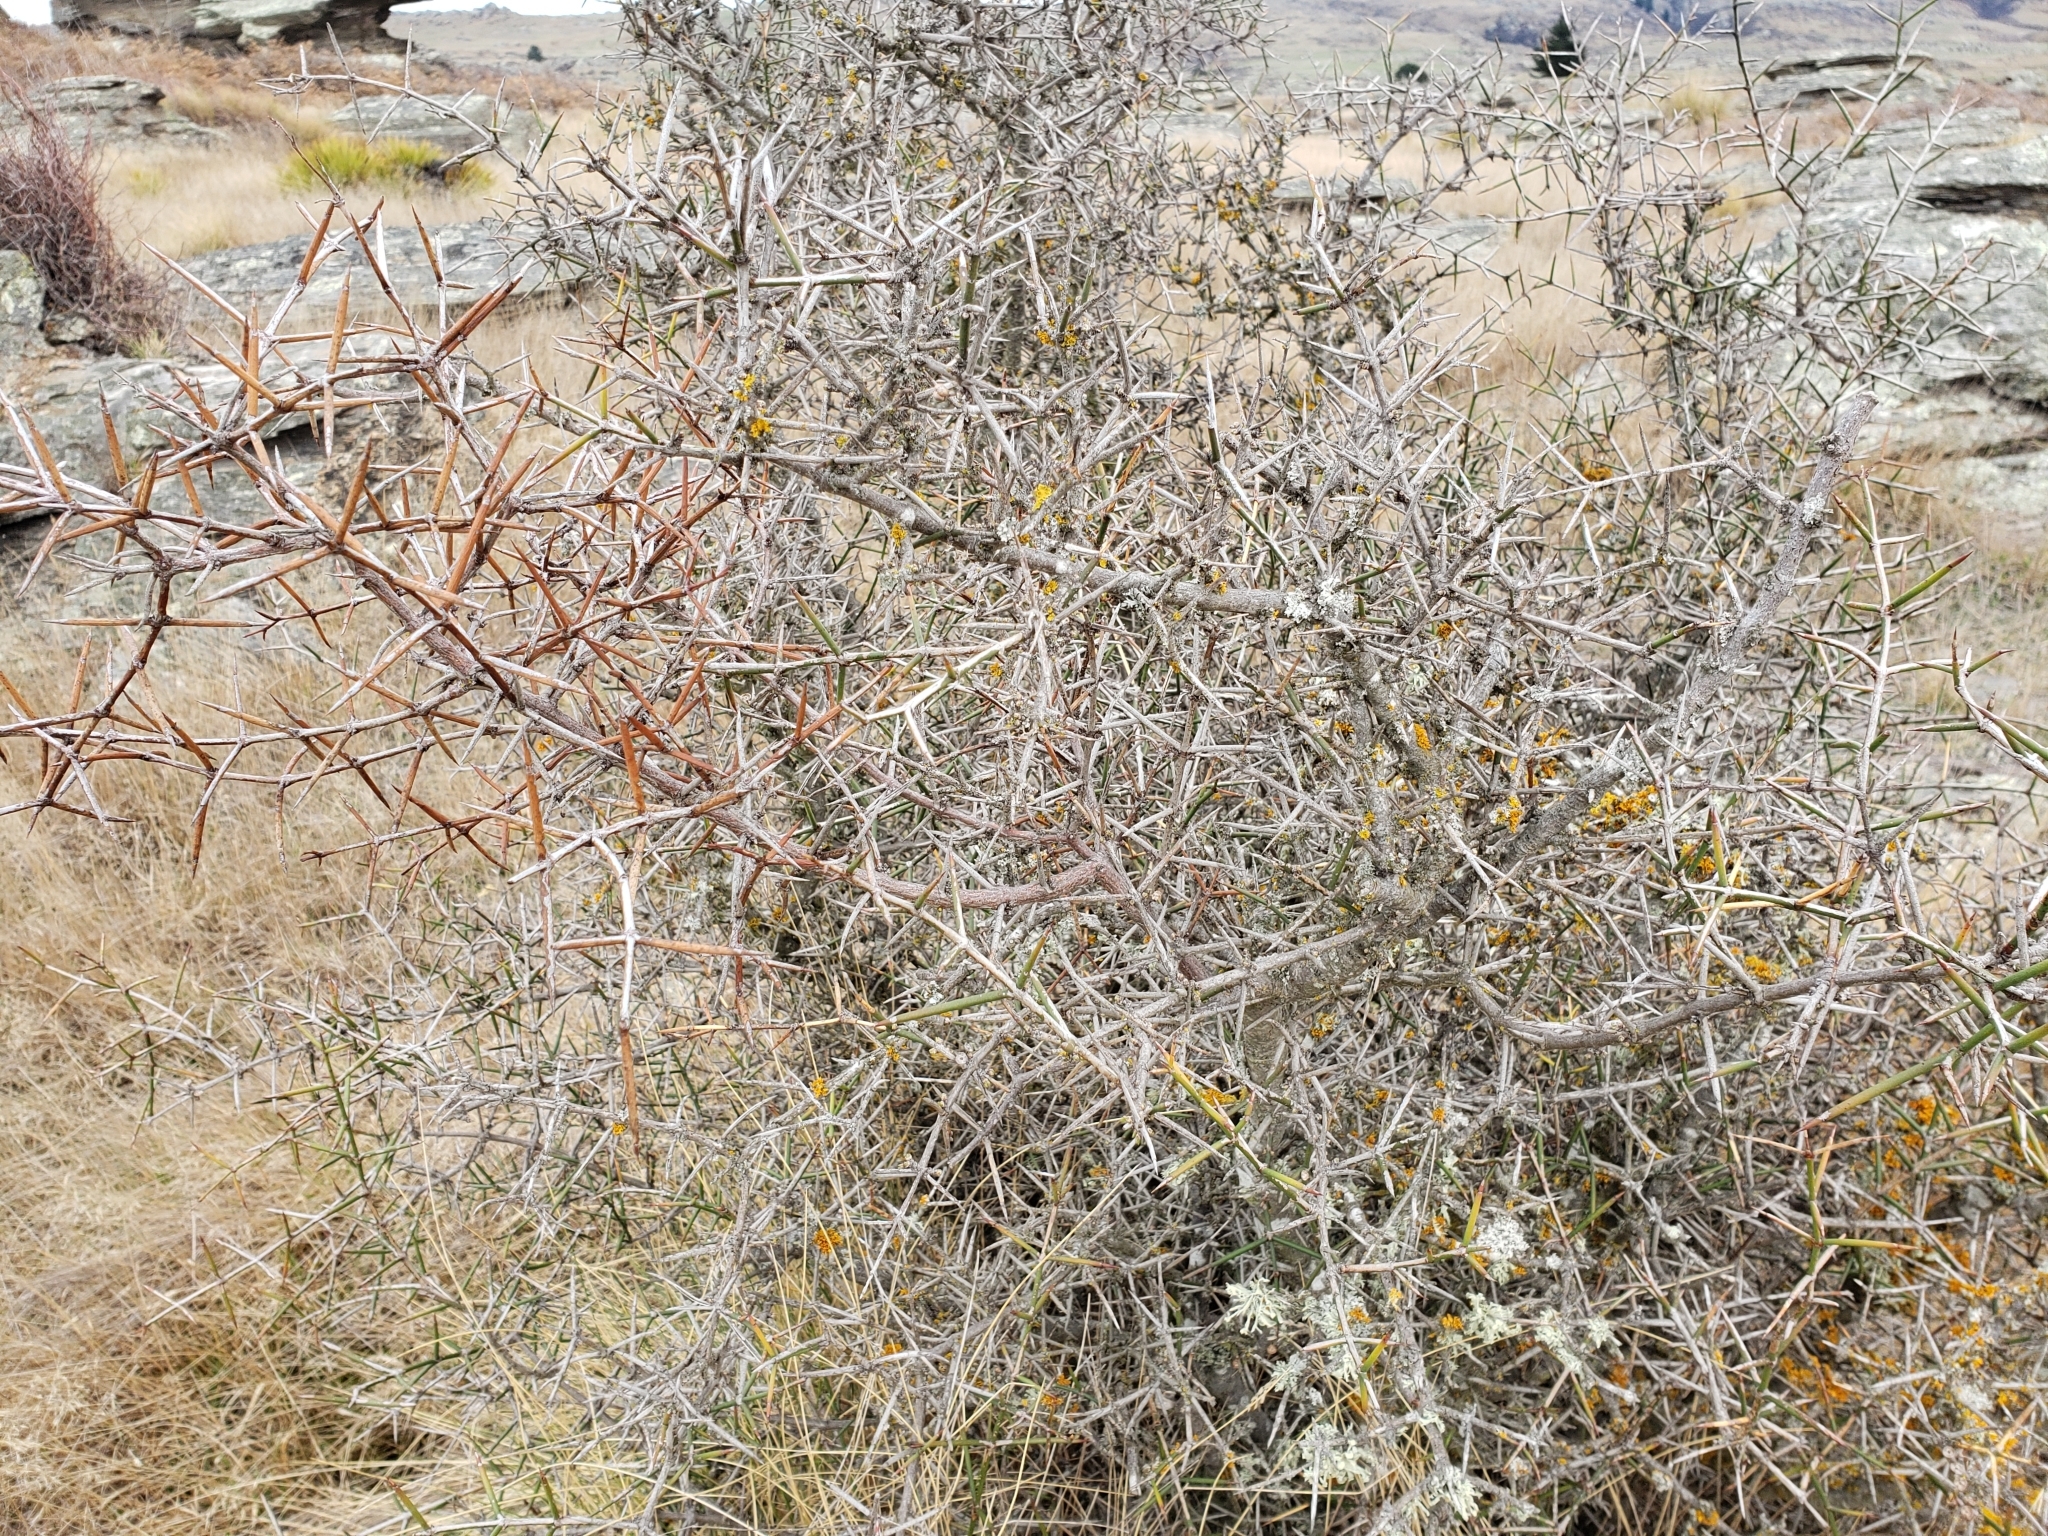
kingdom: Plantae
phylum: Tracheophyta
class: Magnoliopsida
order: Rosales
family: Rhamnaceae
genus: Discaria
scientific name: Discaria toumatou
